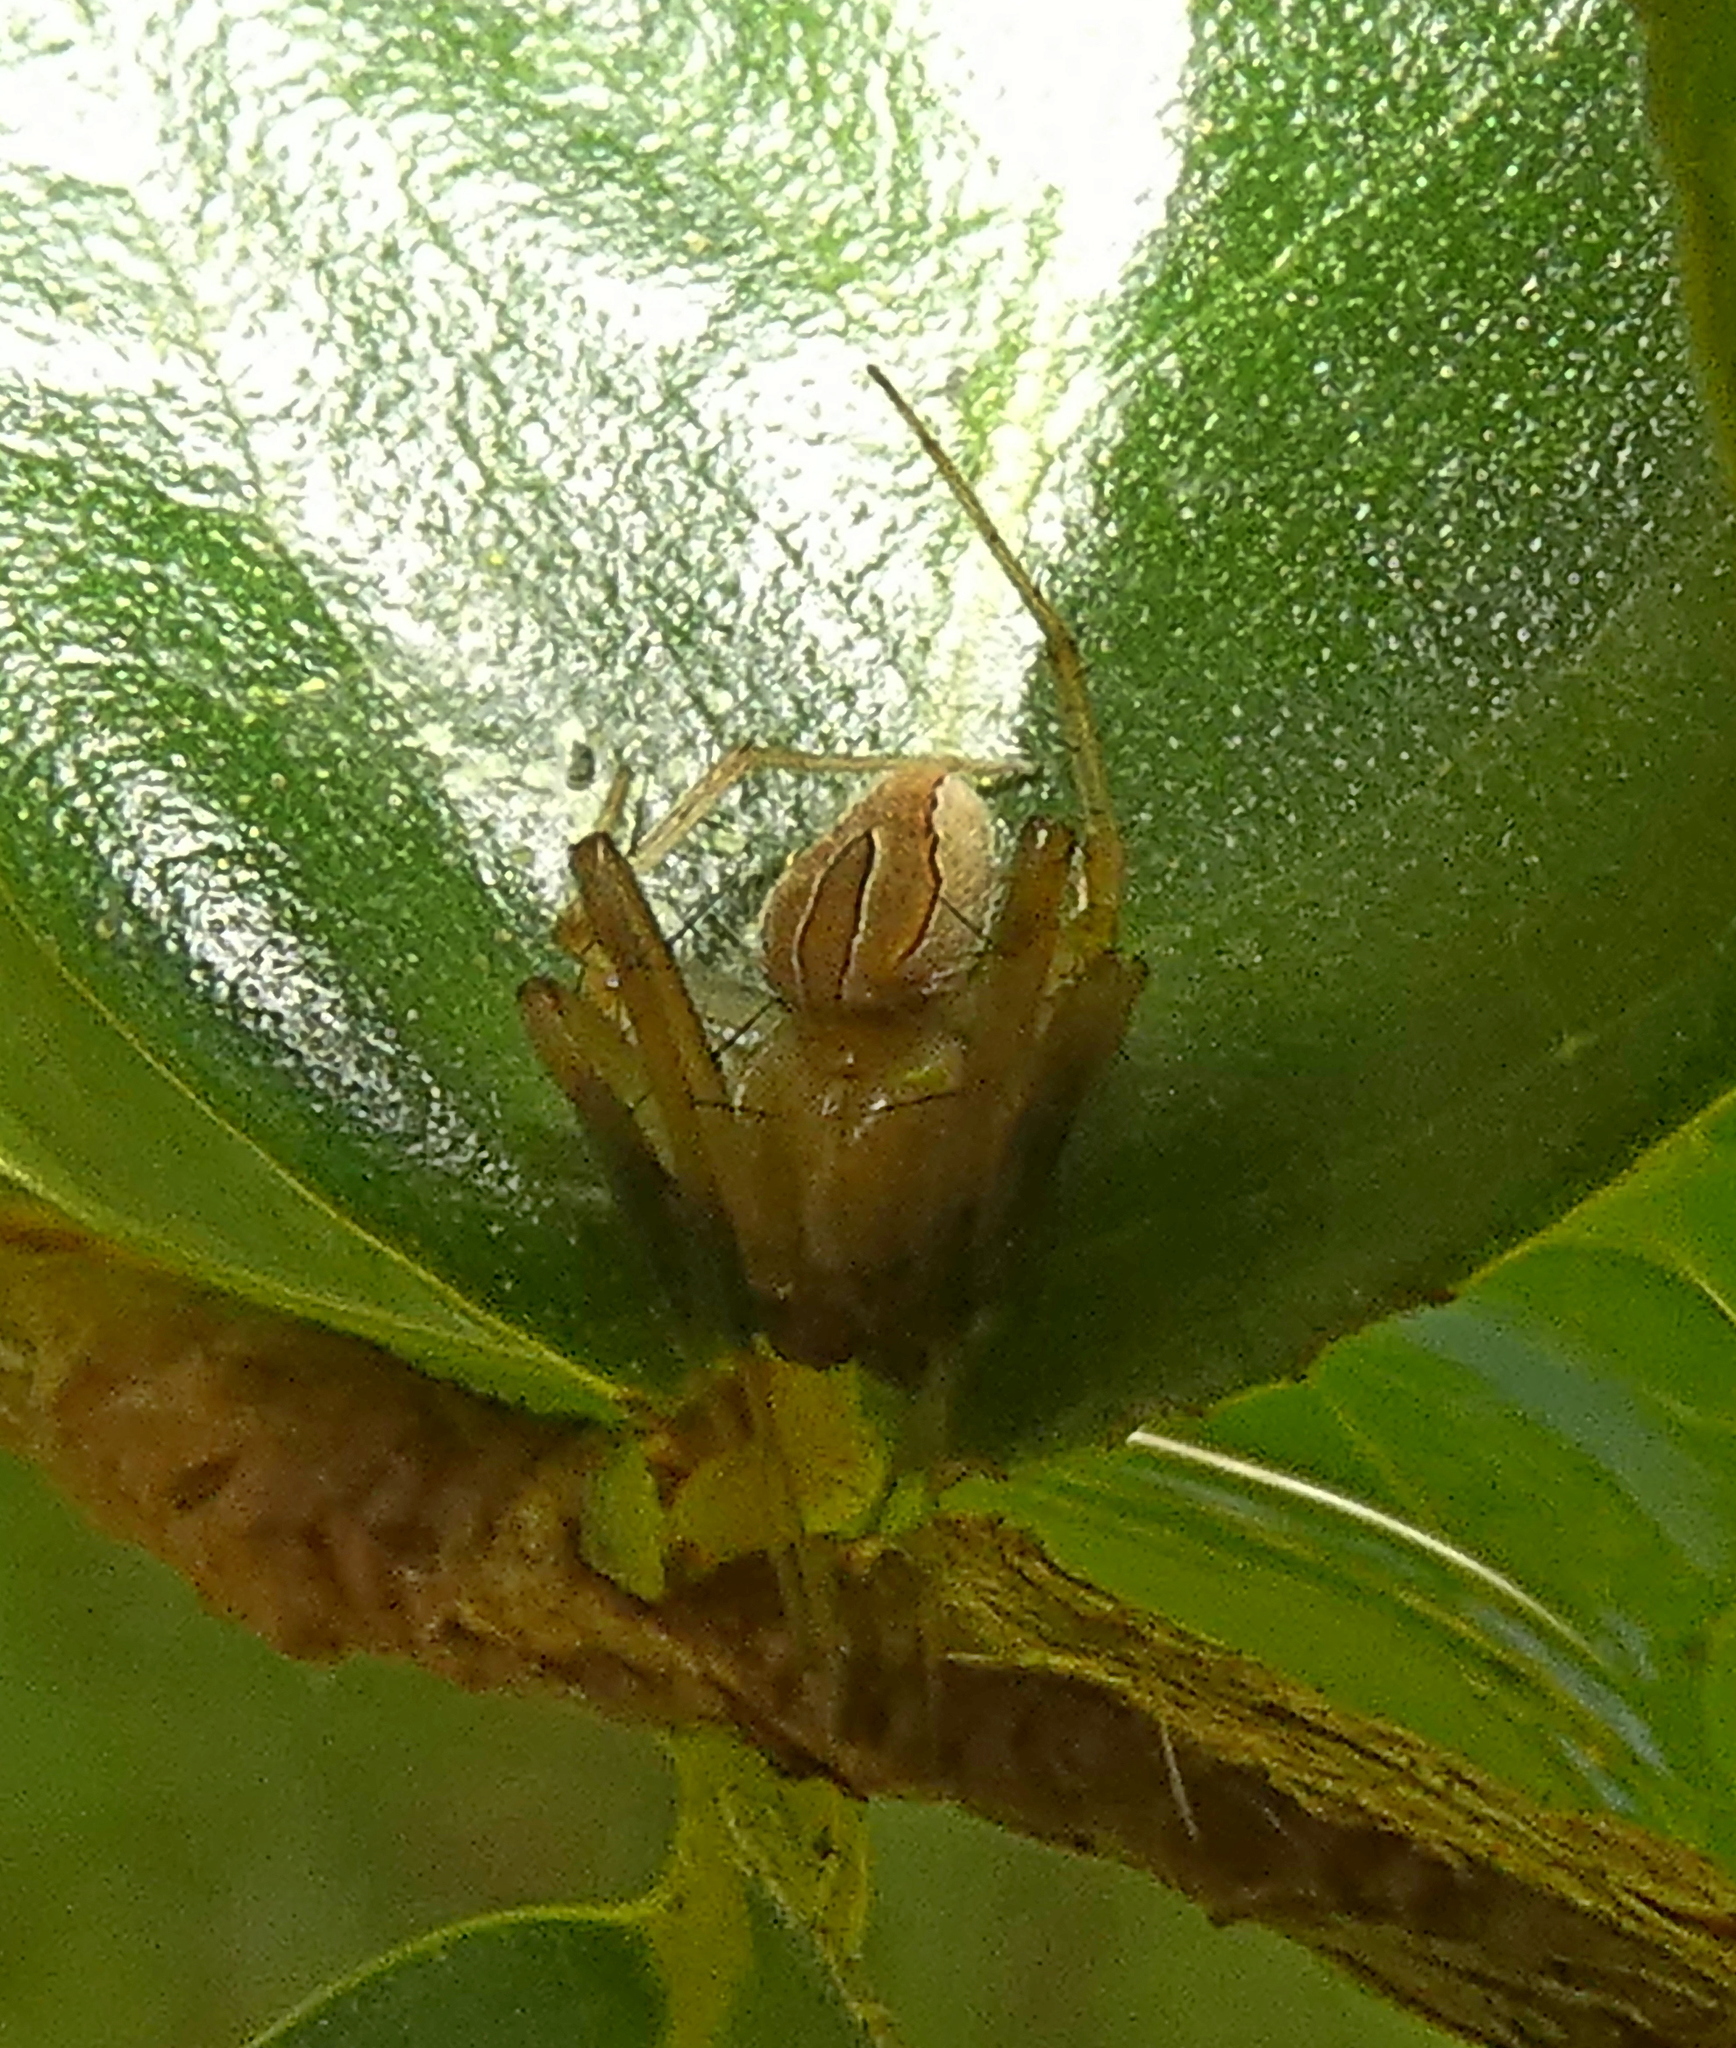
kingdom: Animalia
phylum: Arthropoda
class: Arachnida
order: Araneae
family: Oxyopidae
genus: Oxyopes
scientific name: Oxyopes salticus
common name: Lynx spiders
